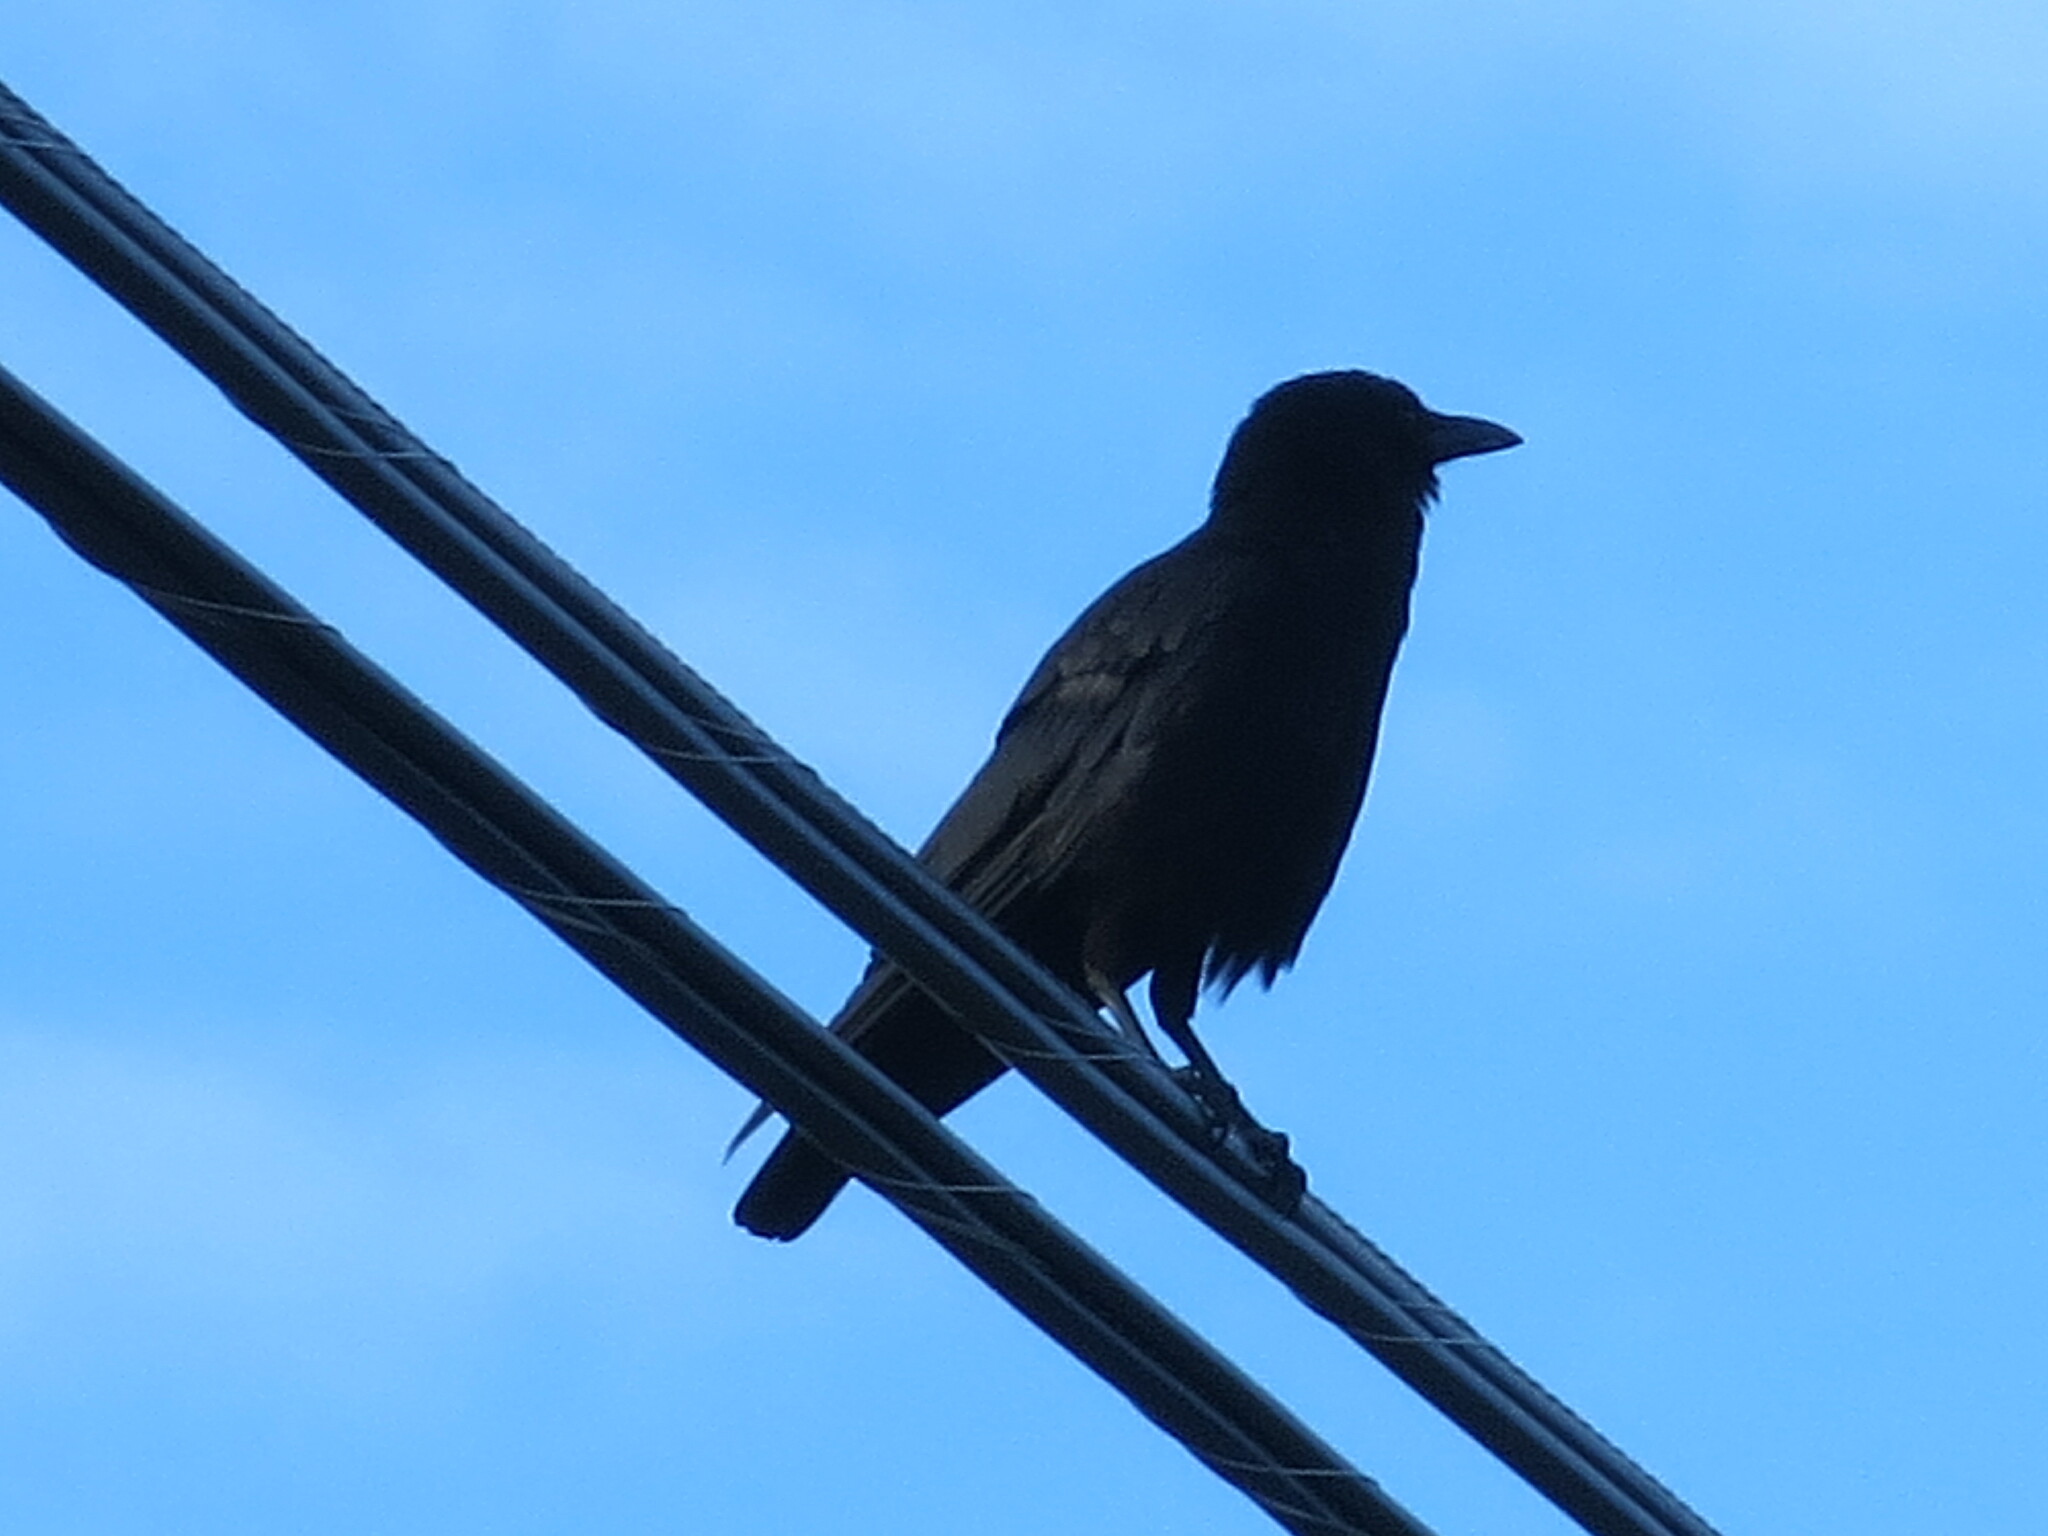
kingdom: Animalia
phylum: Chordata
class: Aves
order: Passeriformes
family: Corvidae
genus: Corvus
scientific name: Corvus brachyrhynchos
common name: American crow
